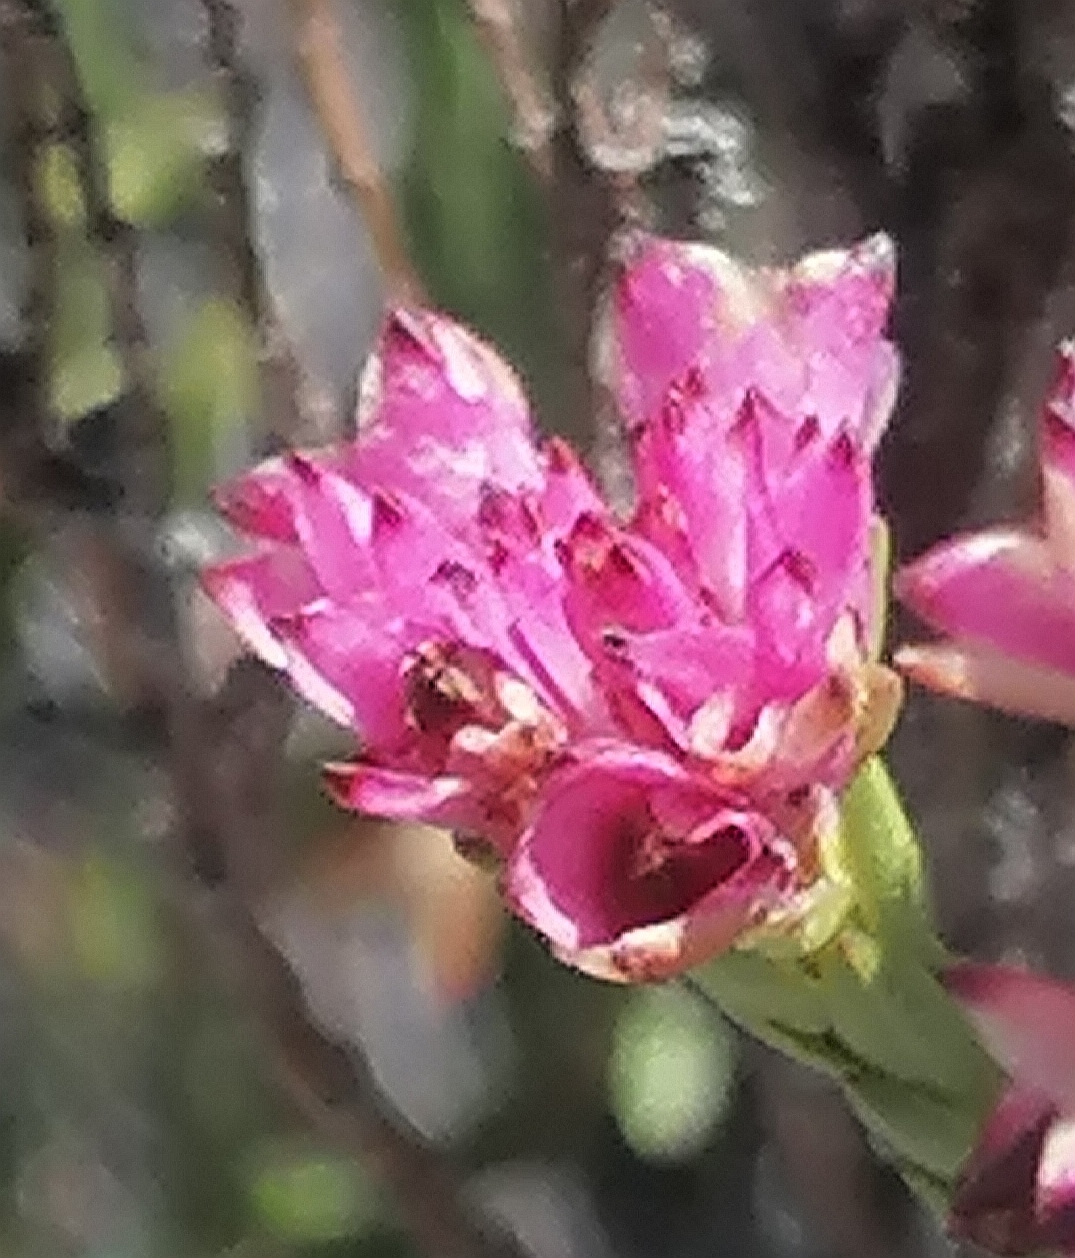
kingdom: Plantae
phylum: Tracheophyta
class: Magnoliopsida
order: Ericales
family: Ericaceae
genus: Erica
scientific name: Erica corifolia
